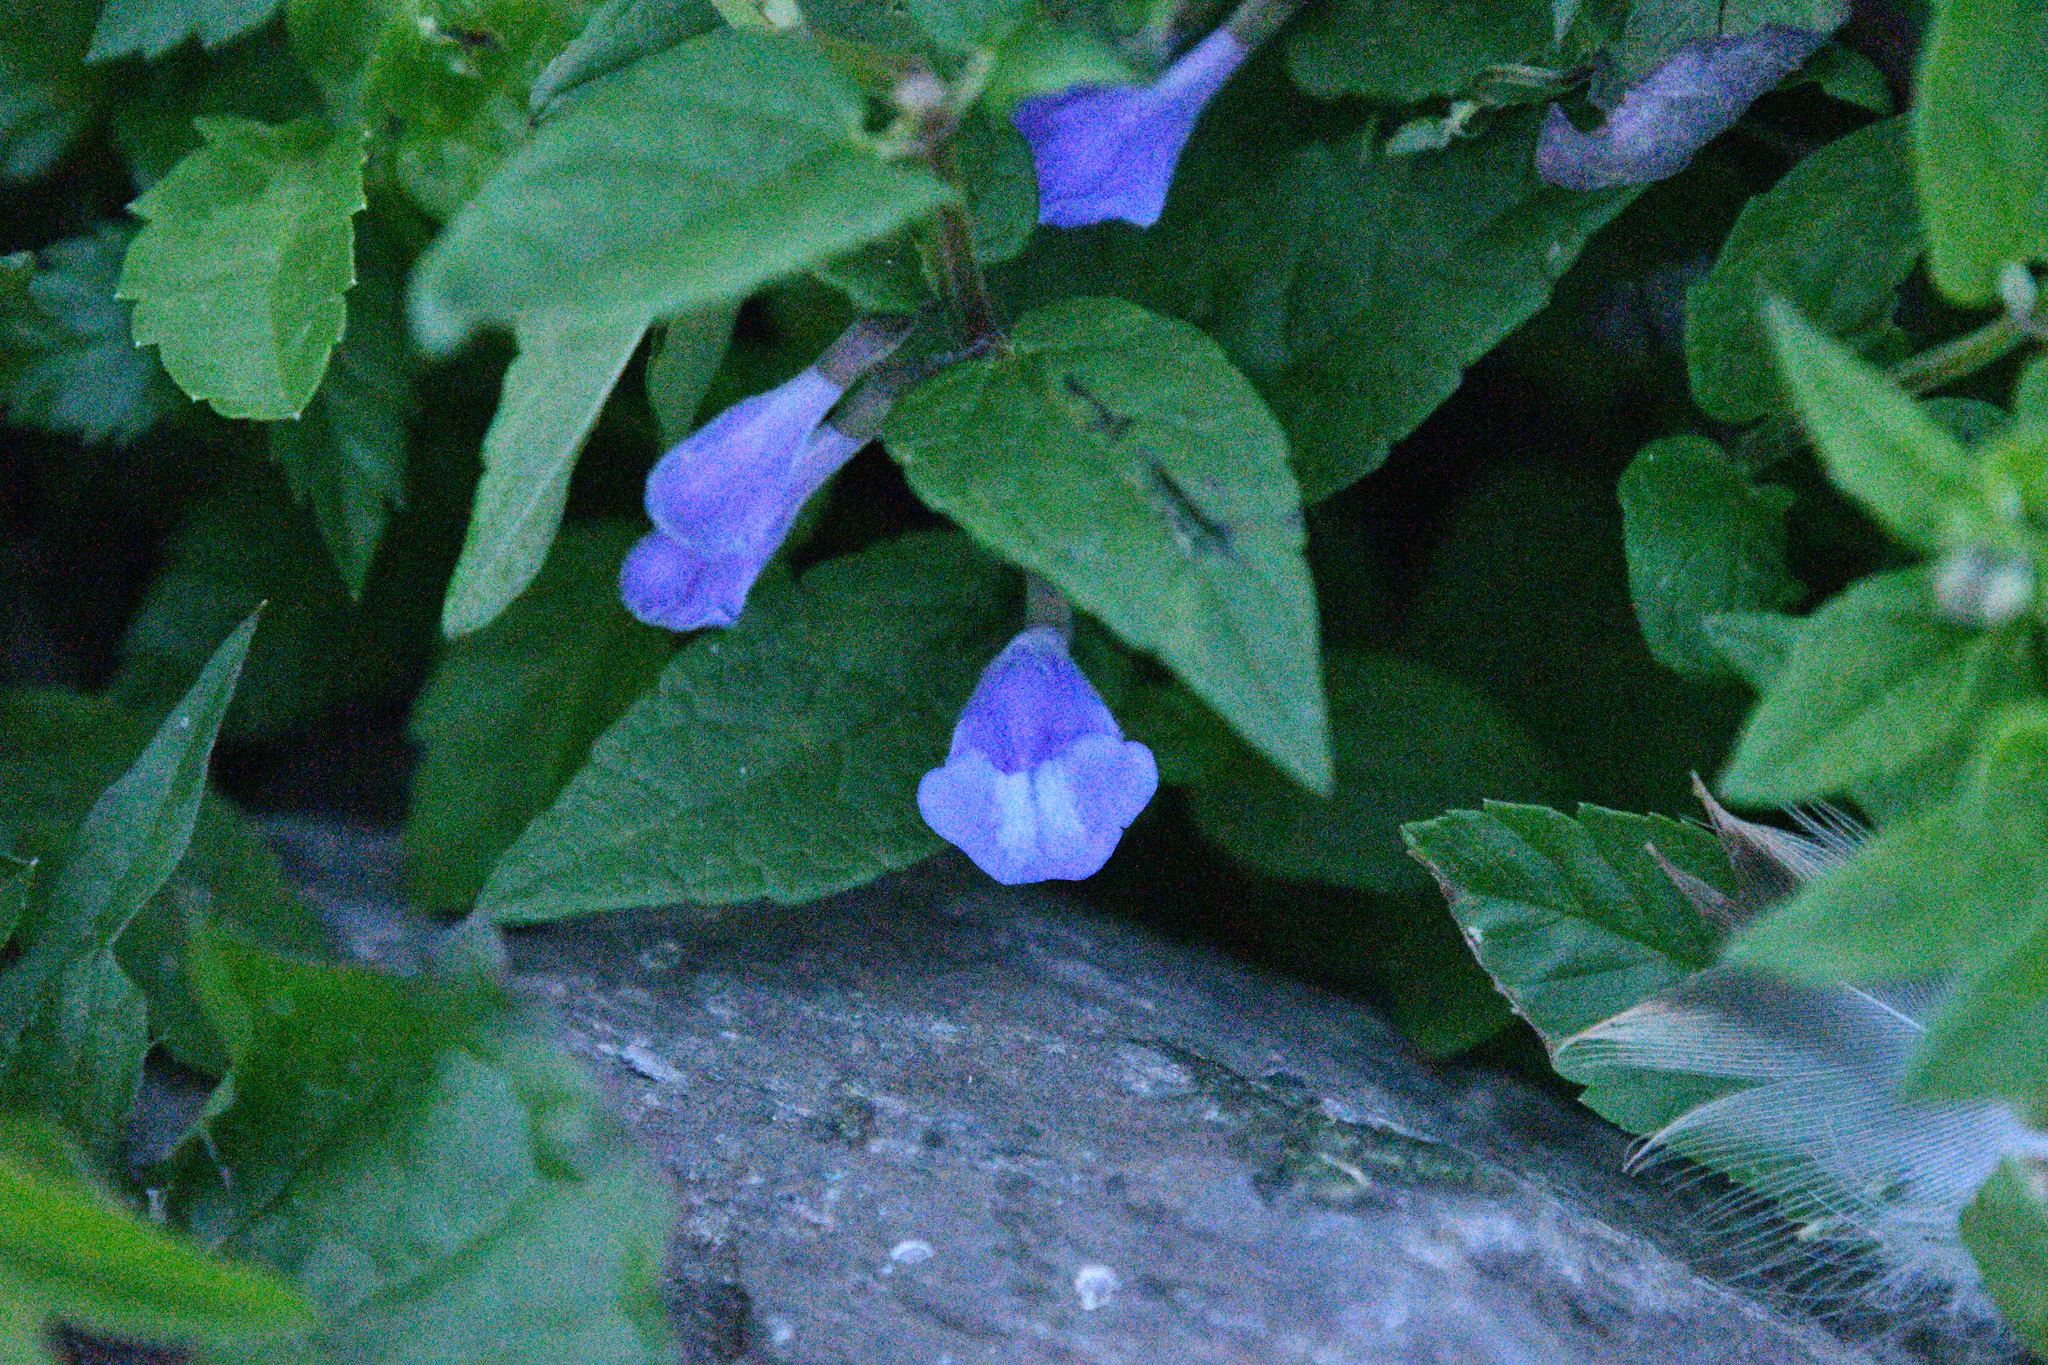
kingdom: Plantae
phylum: Tracheophyta
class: Magnoliopsida
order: Lamiales
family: Lamiaceae
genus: Scutellaria
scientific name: Scutellaria galericulata
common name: Skullcap
